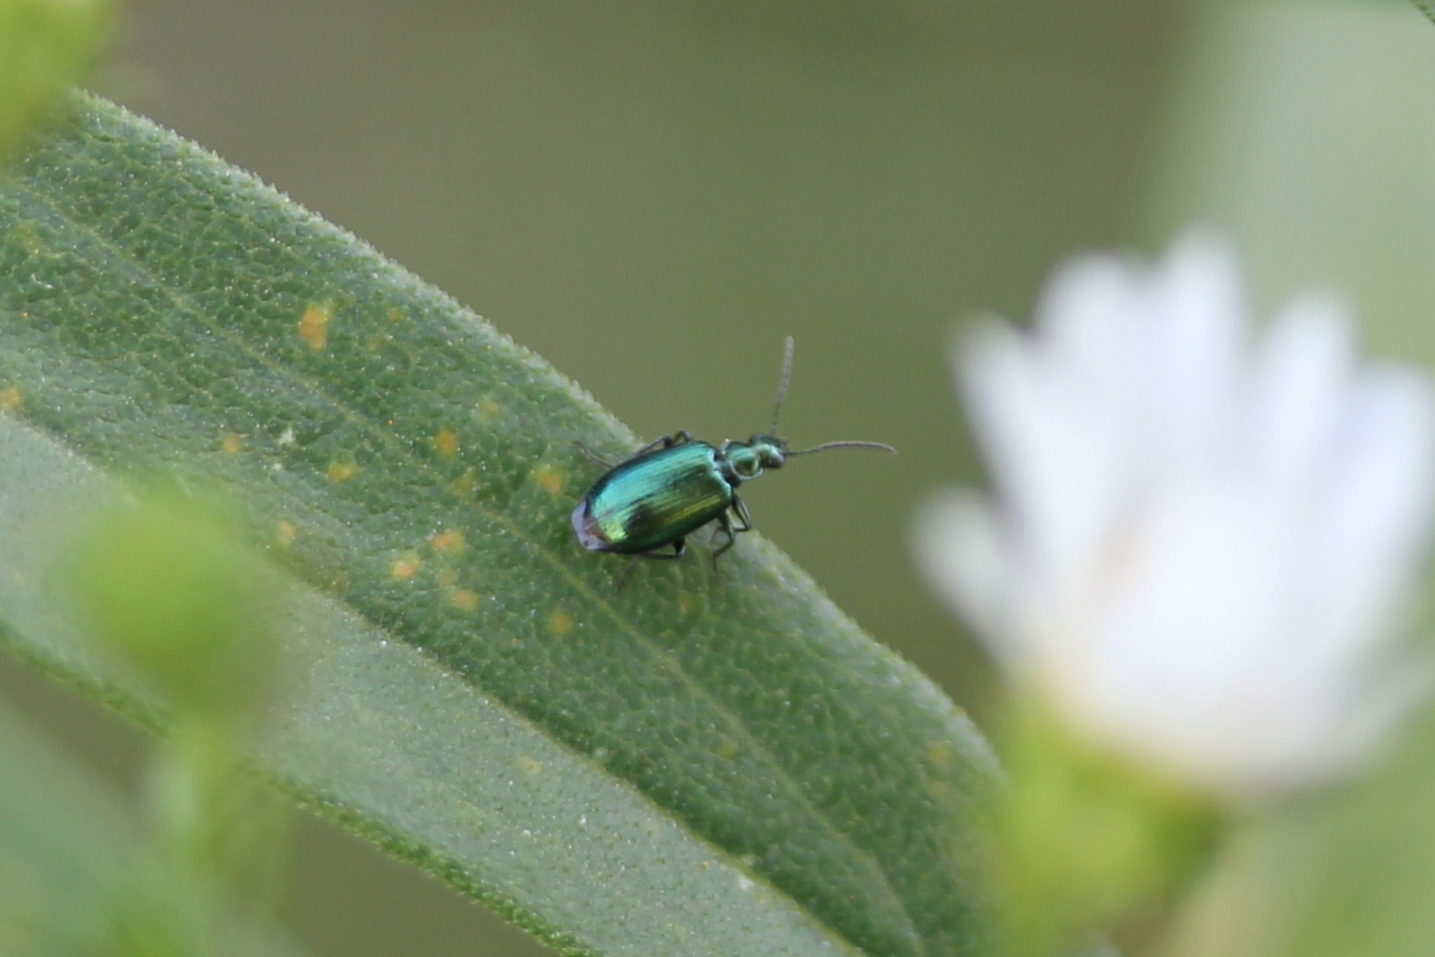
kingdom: Animalia
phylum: Arthropoda
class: Insecta
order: Coleoptera
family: Carabidae
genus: Lebia
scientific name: Lebia viridis
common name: Flower lebia beetle
